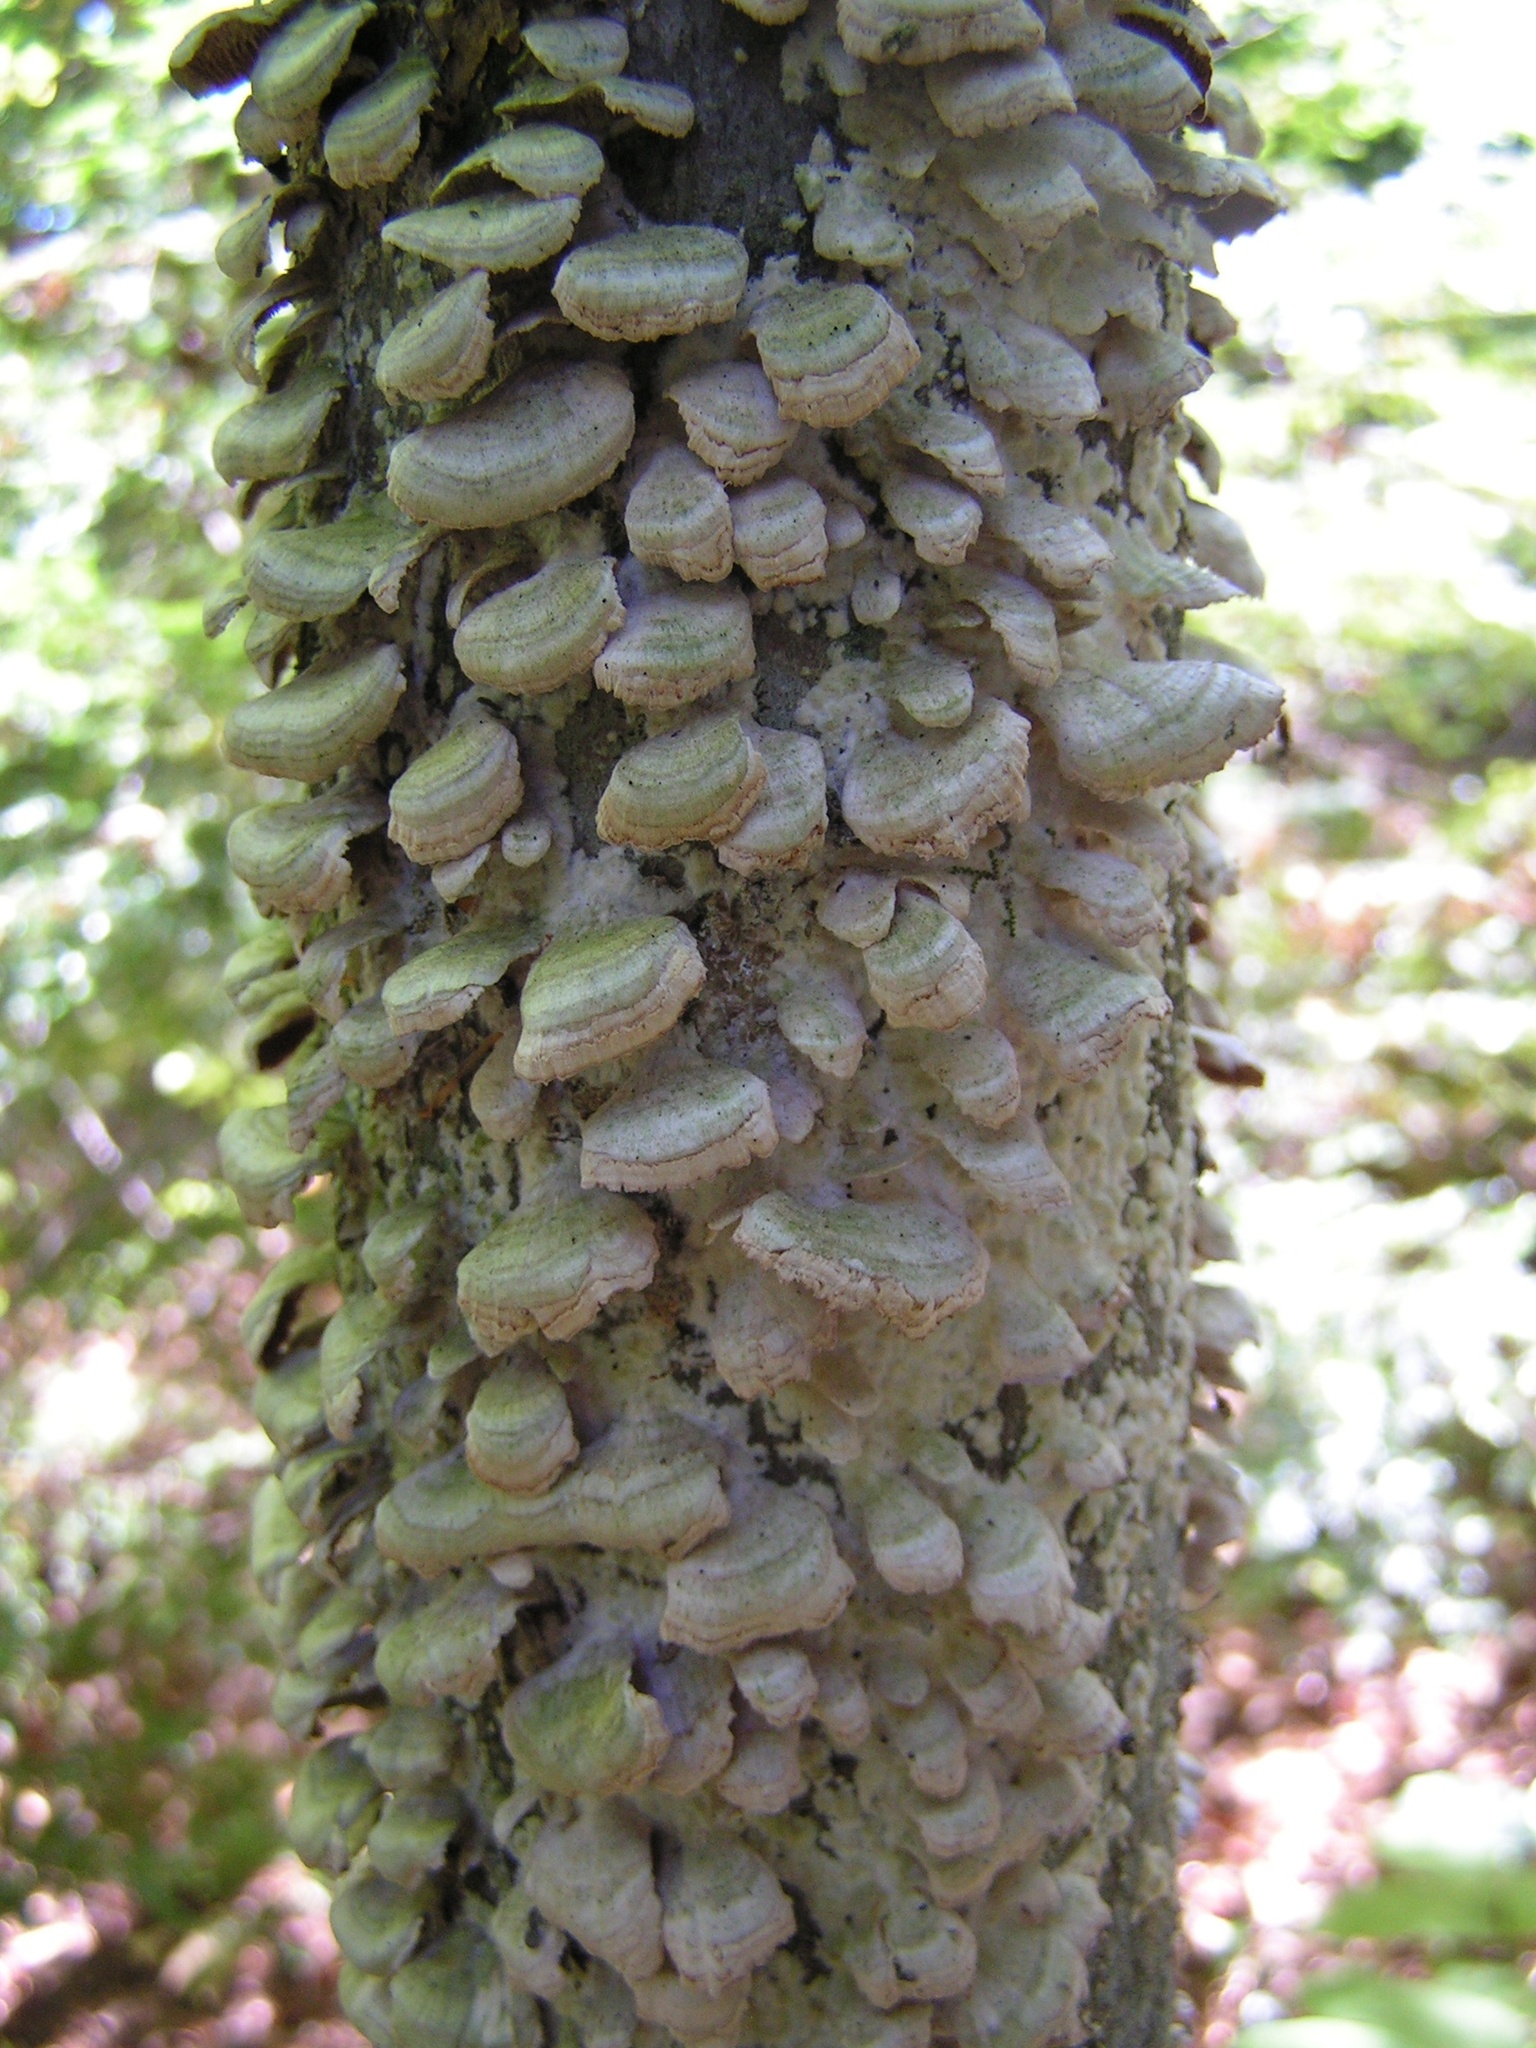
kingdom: Fungi
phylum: Basidiomycota
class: Agaricomycetes
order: Hymenochaetales
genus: Trichaptum
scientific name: Trichaptum biforme
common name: Violet-toothed polypore
